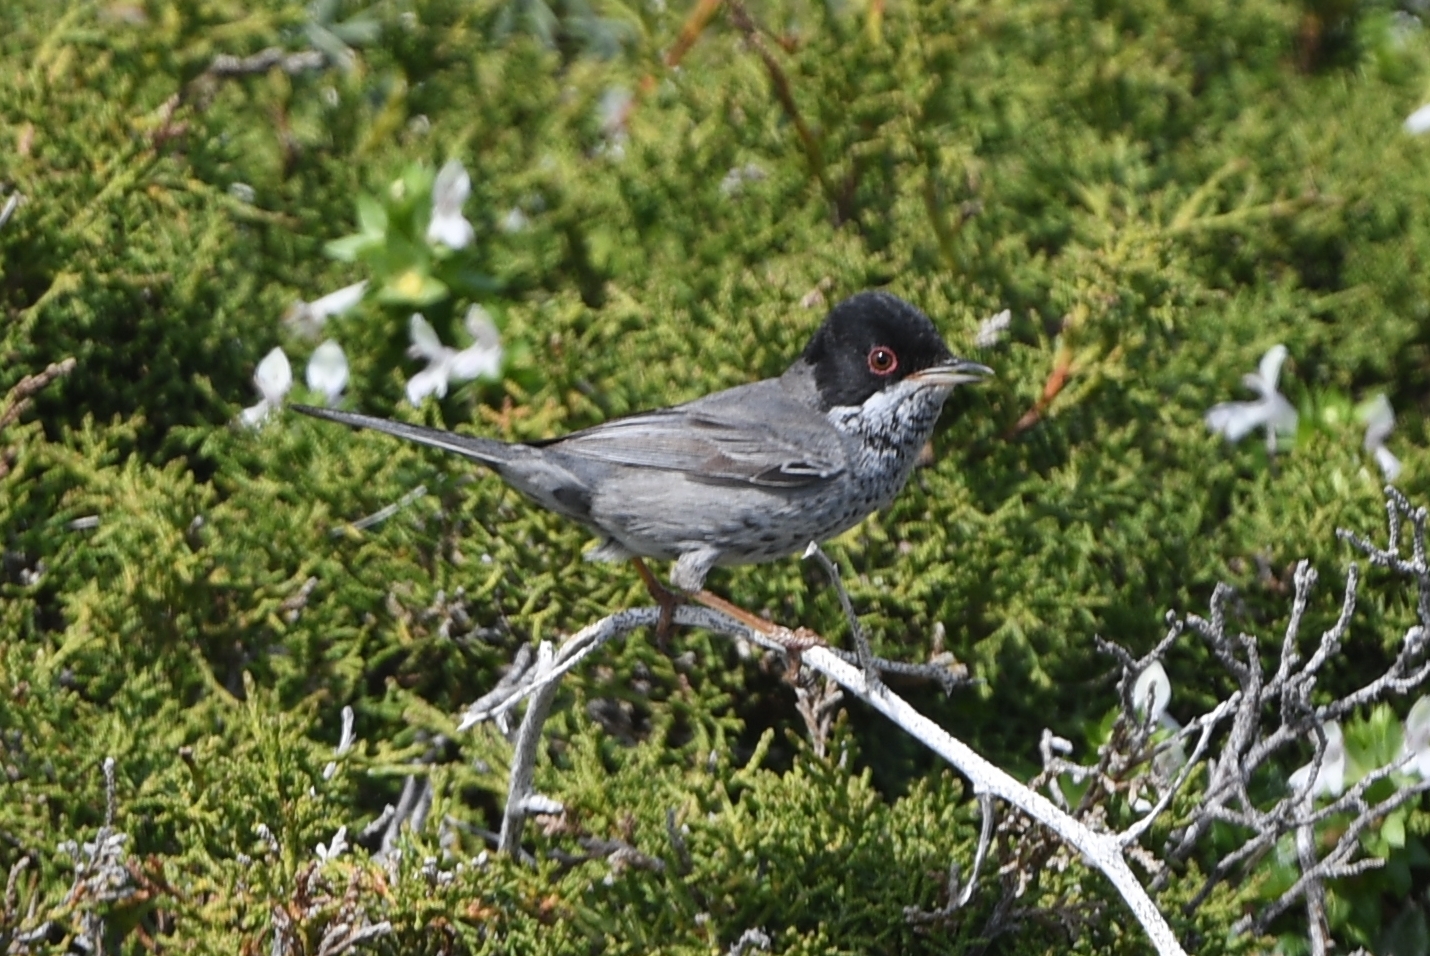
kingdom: Animalia
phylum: Chordata
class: Aves
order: Passeriformes
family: Sylviidae
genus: Sylvia
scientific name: Sylvia melanothorax
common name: Cyprus warbler
